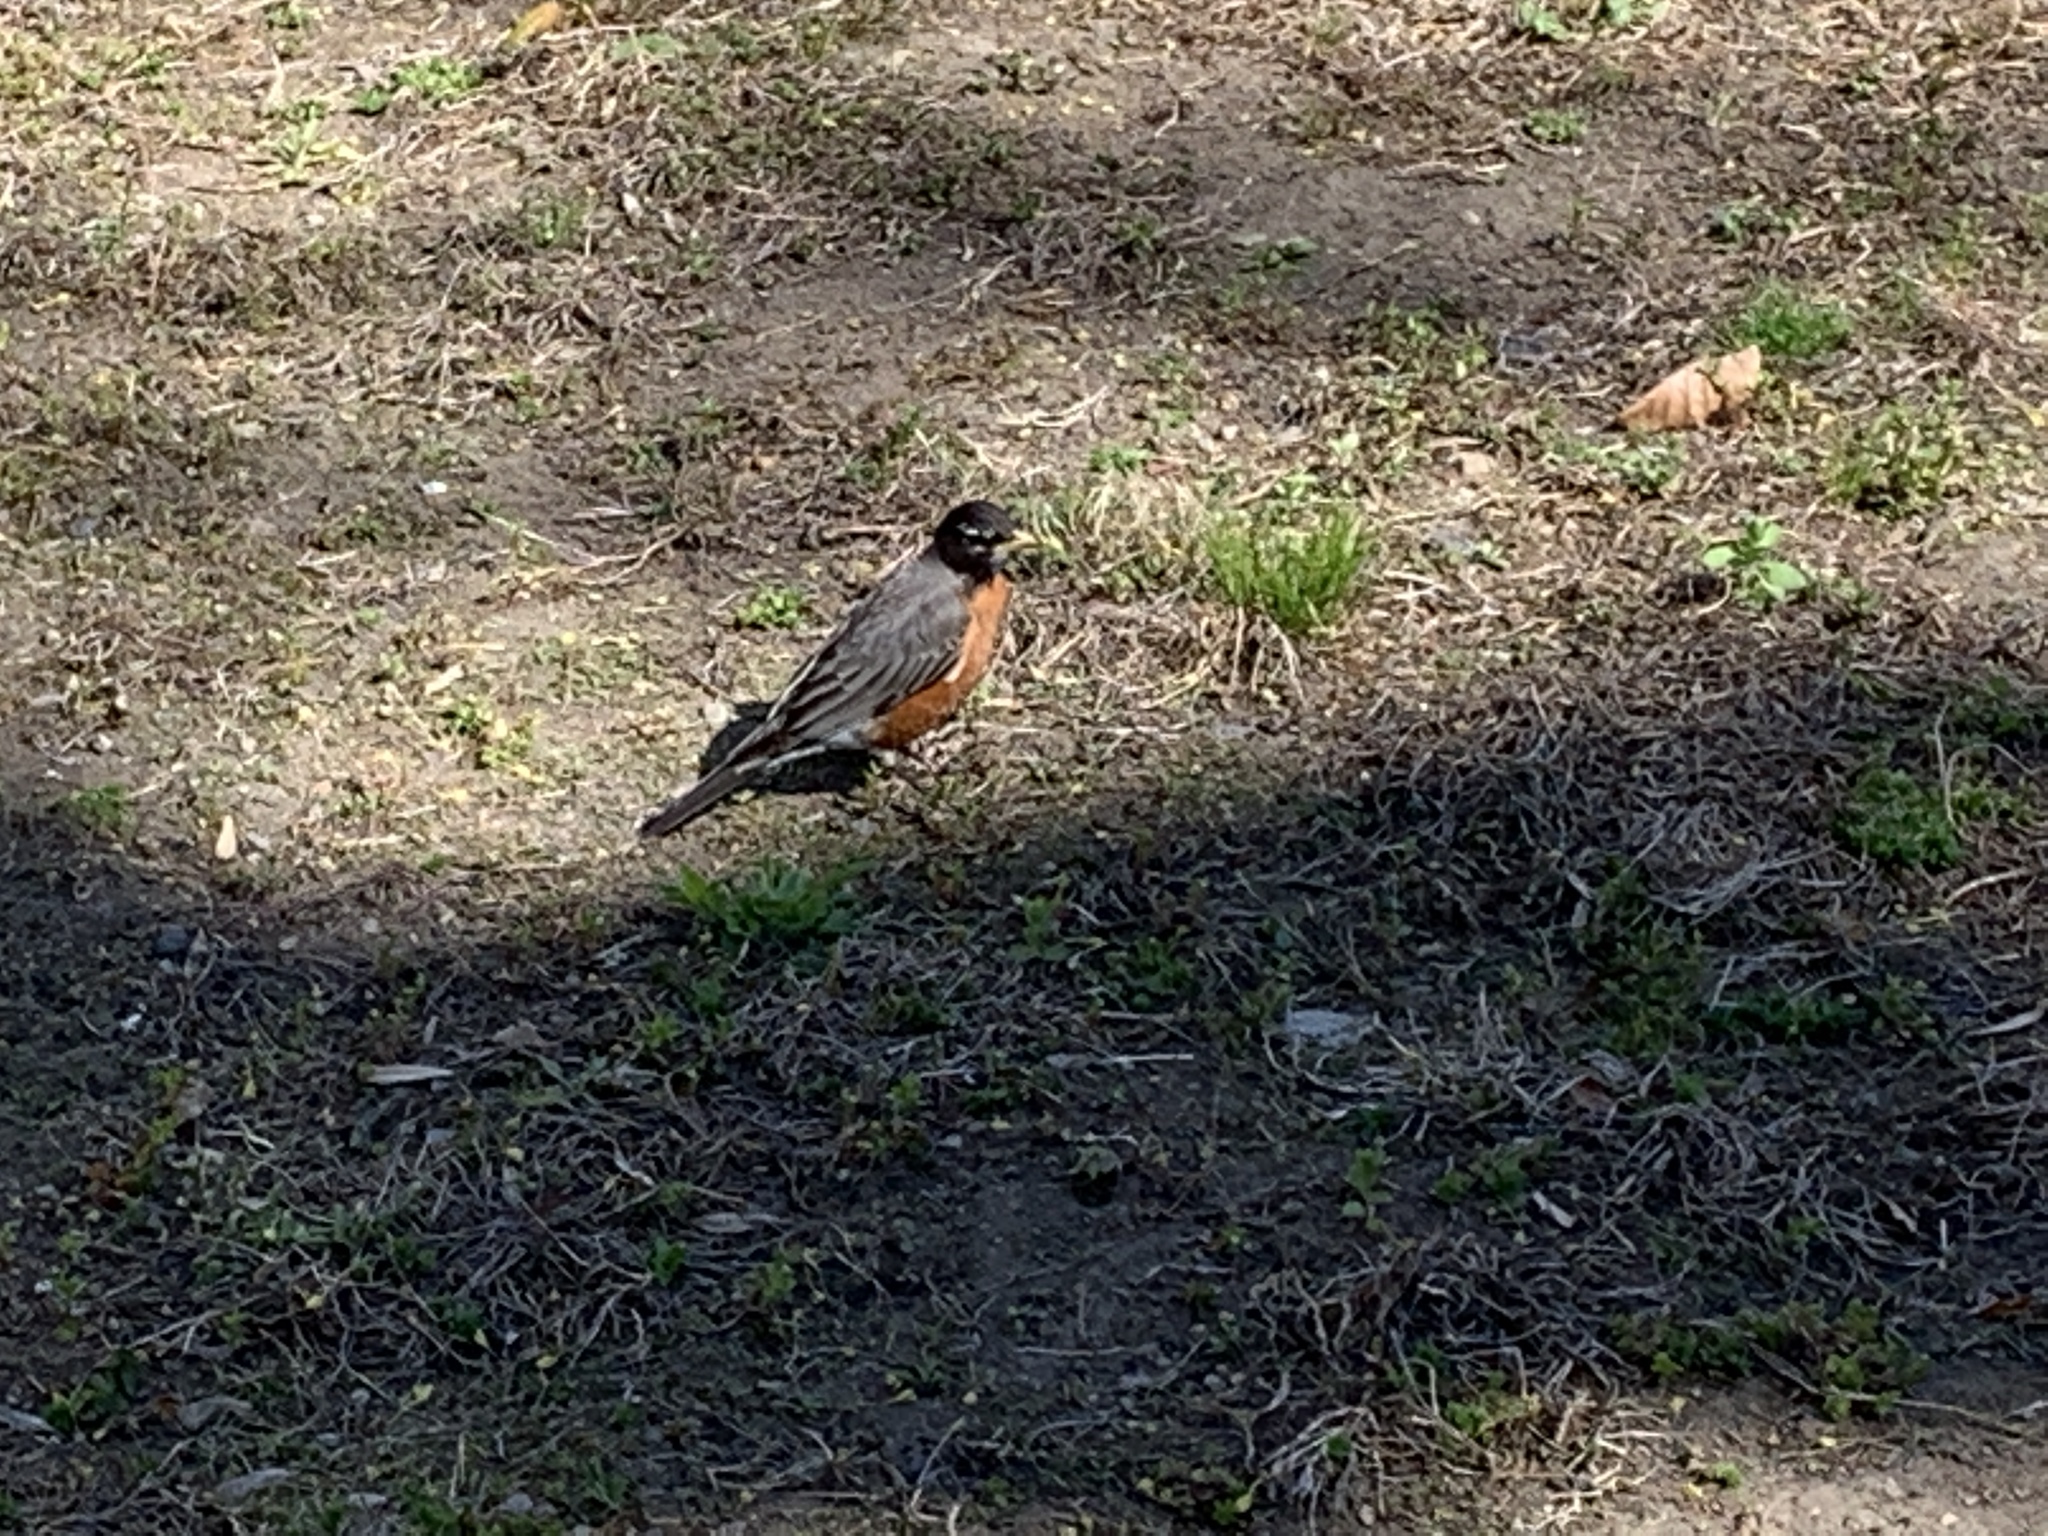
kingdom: Animalia
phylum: Chordata
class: Aves
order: Passeriformes
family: Turdidae
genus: Turdus
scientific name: Turdus migratorius
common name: American robin
